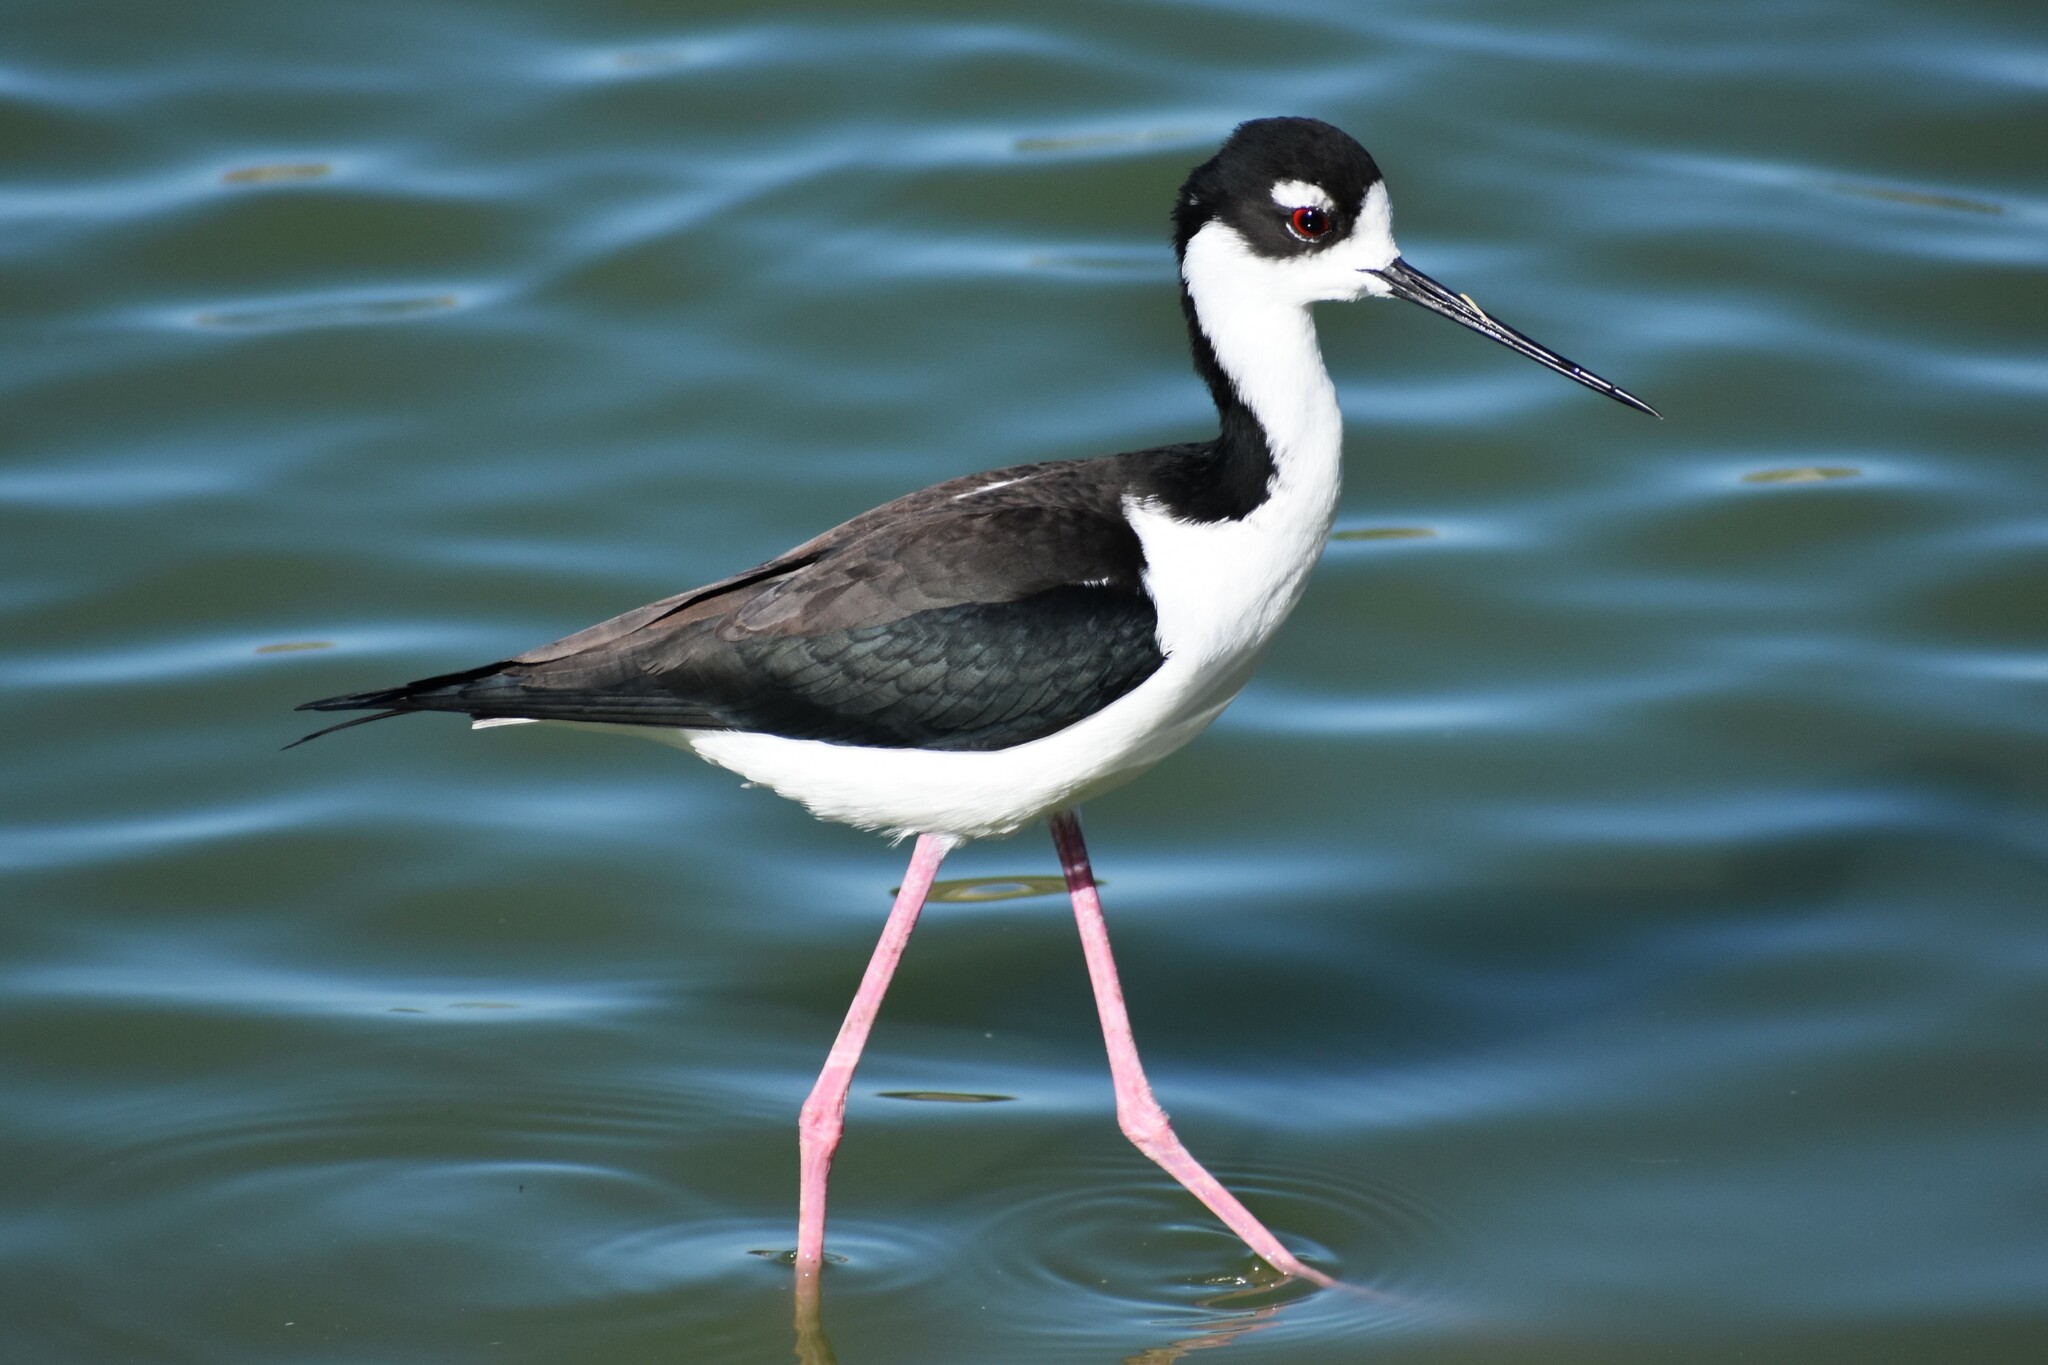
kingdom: Animalia
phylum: Chordata
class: Aves
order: Charadriiformes
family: Recurvirostridae
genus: Himantopus
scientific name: Himantopus mexicanus
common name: Black-necked stilt
